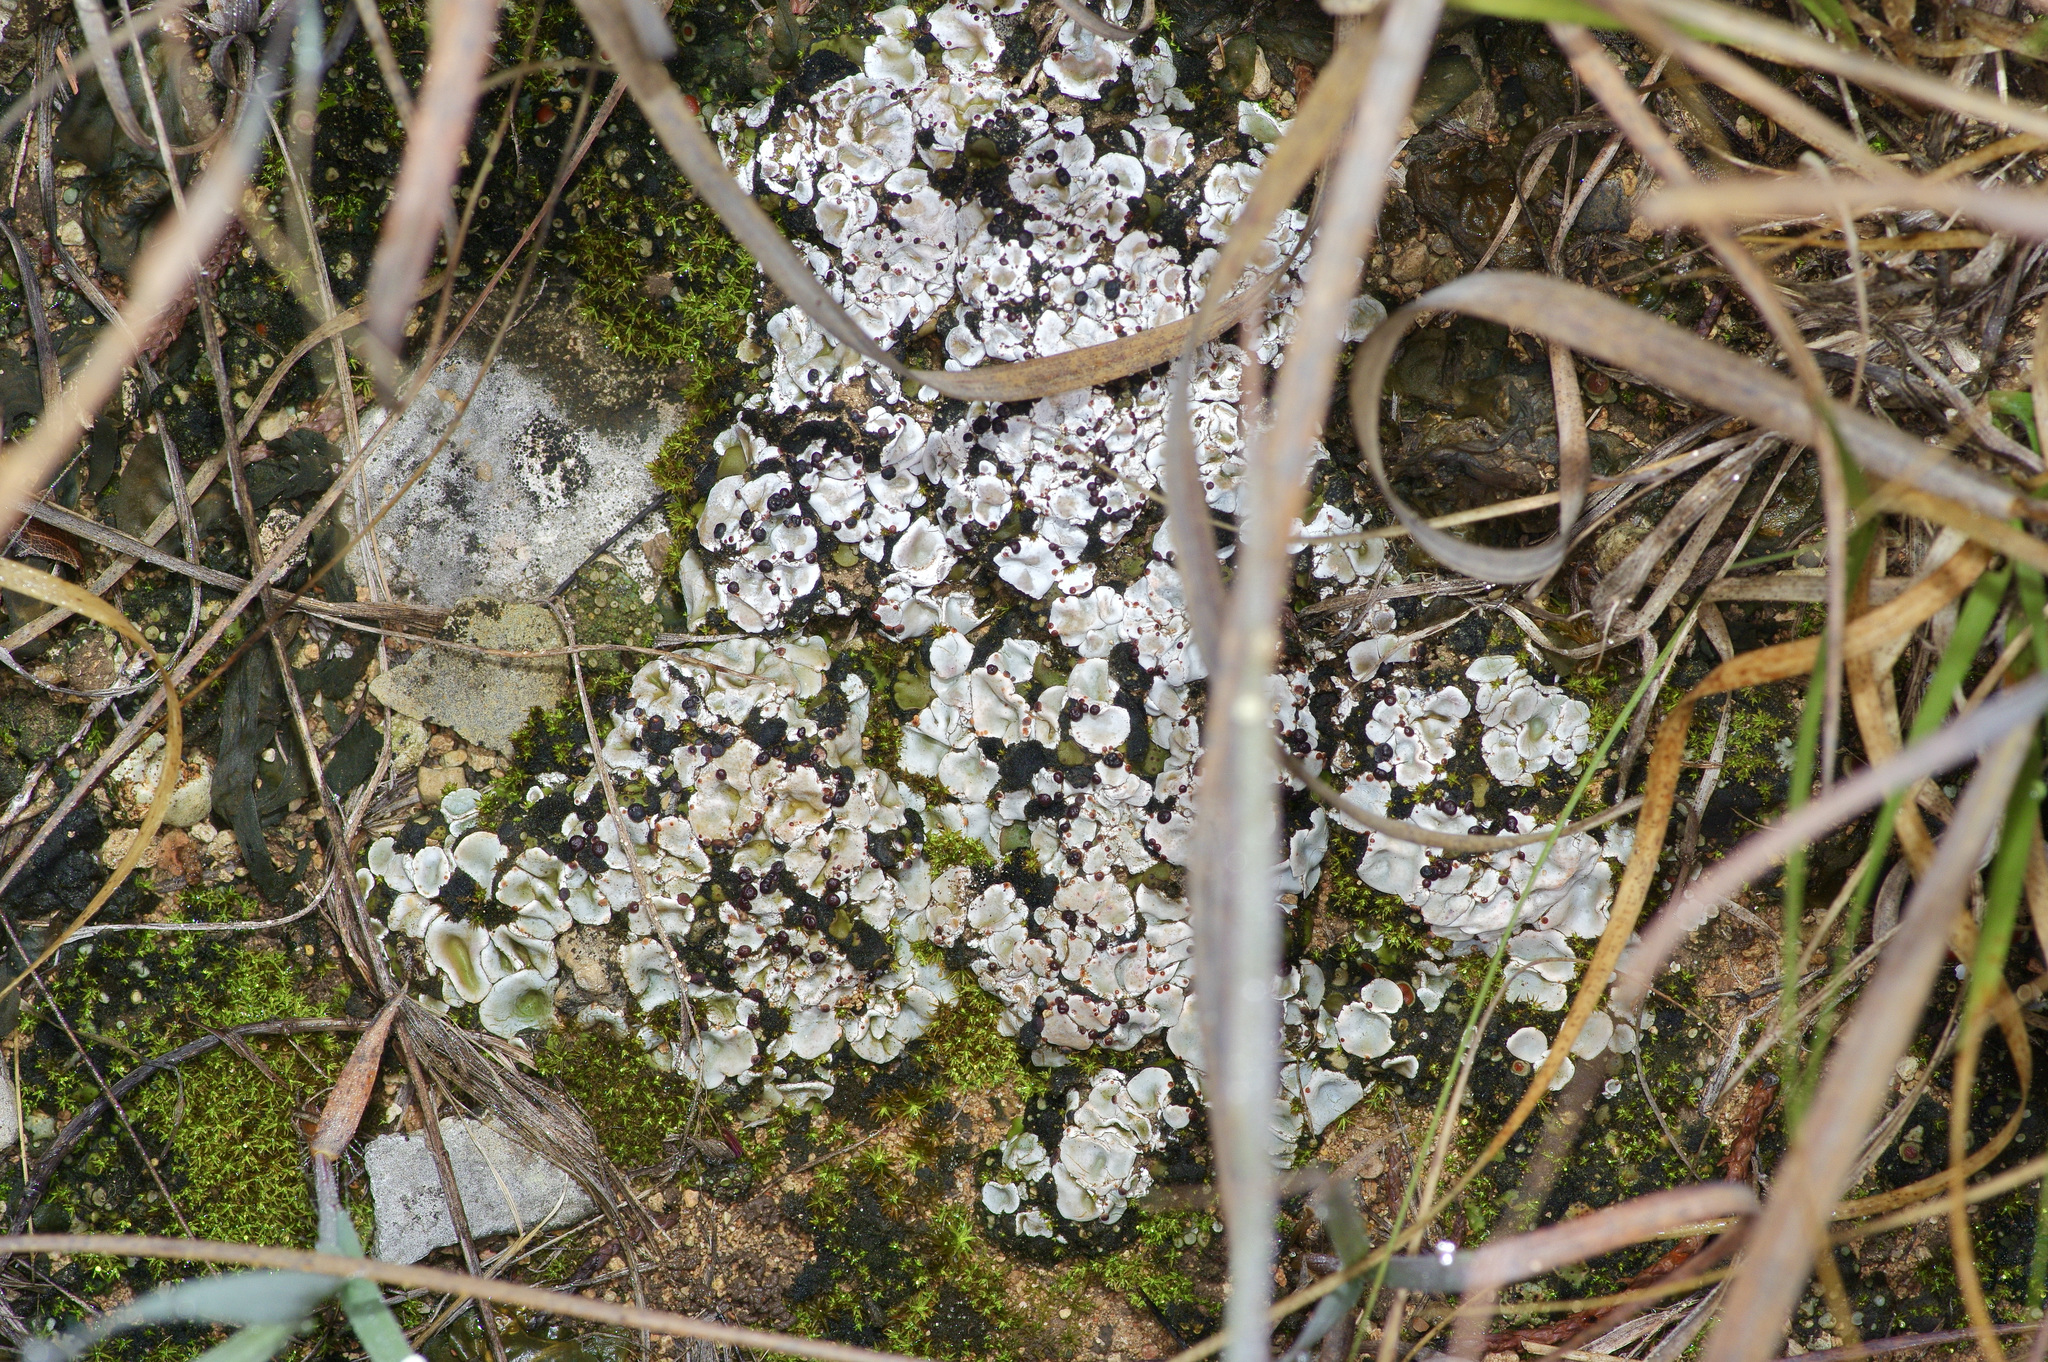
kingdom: Fungi
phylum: Ascomycota
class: Lecanoromycetes
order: Lecanorales
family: Psoraceae
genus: Psora
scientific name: Psora crenata
